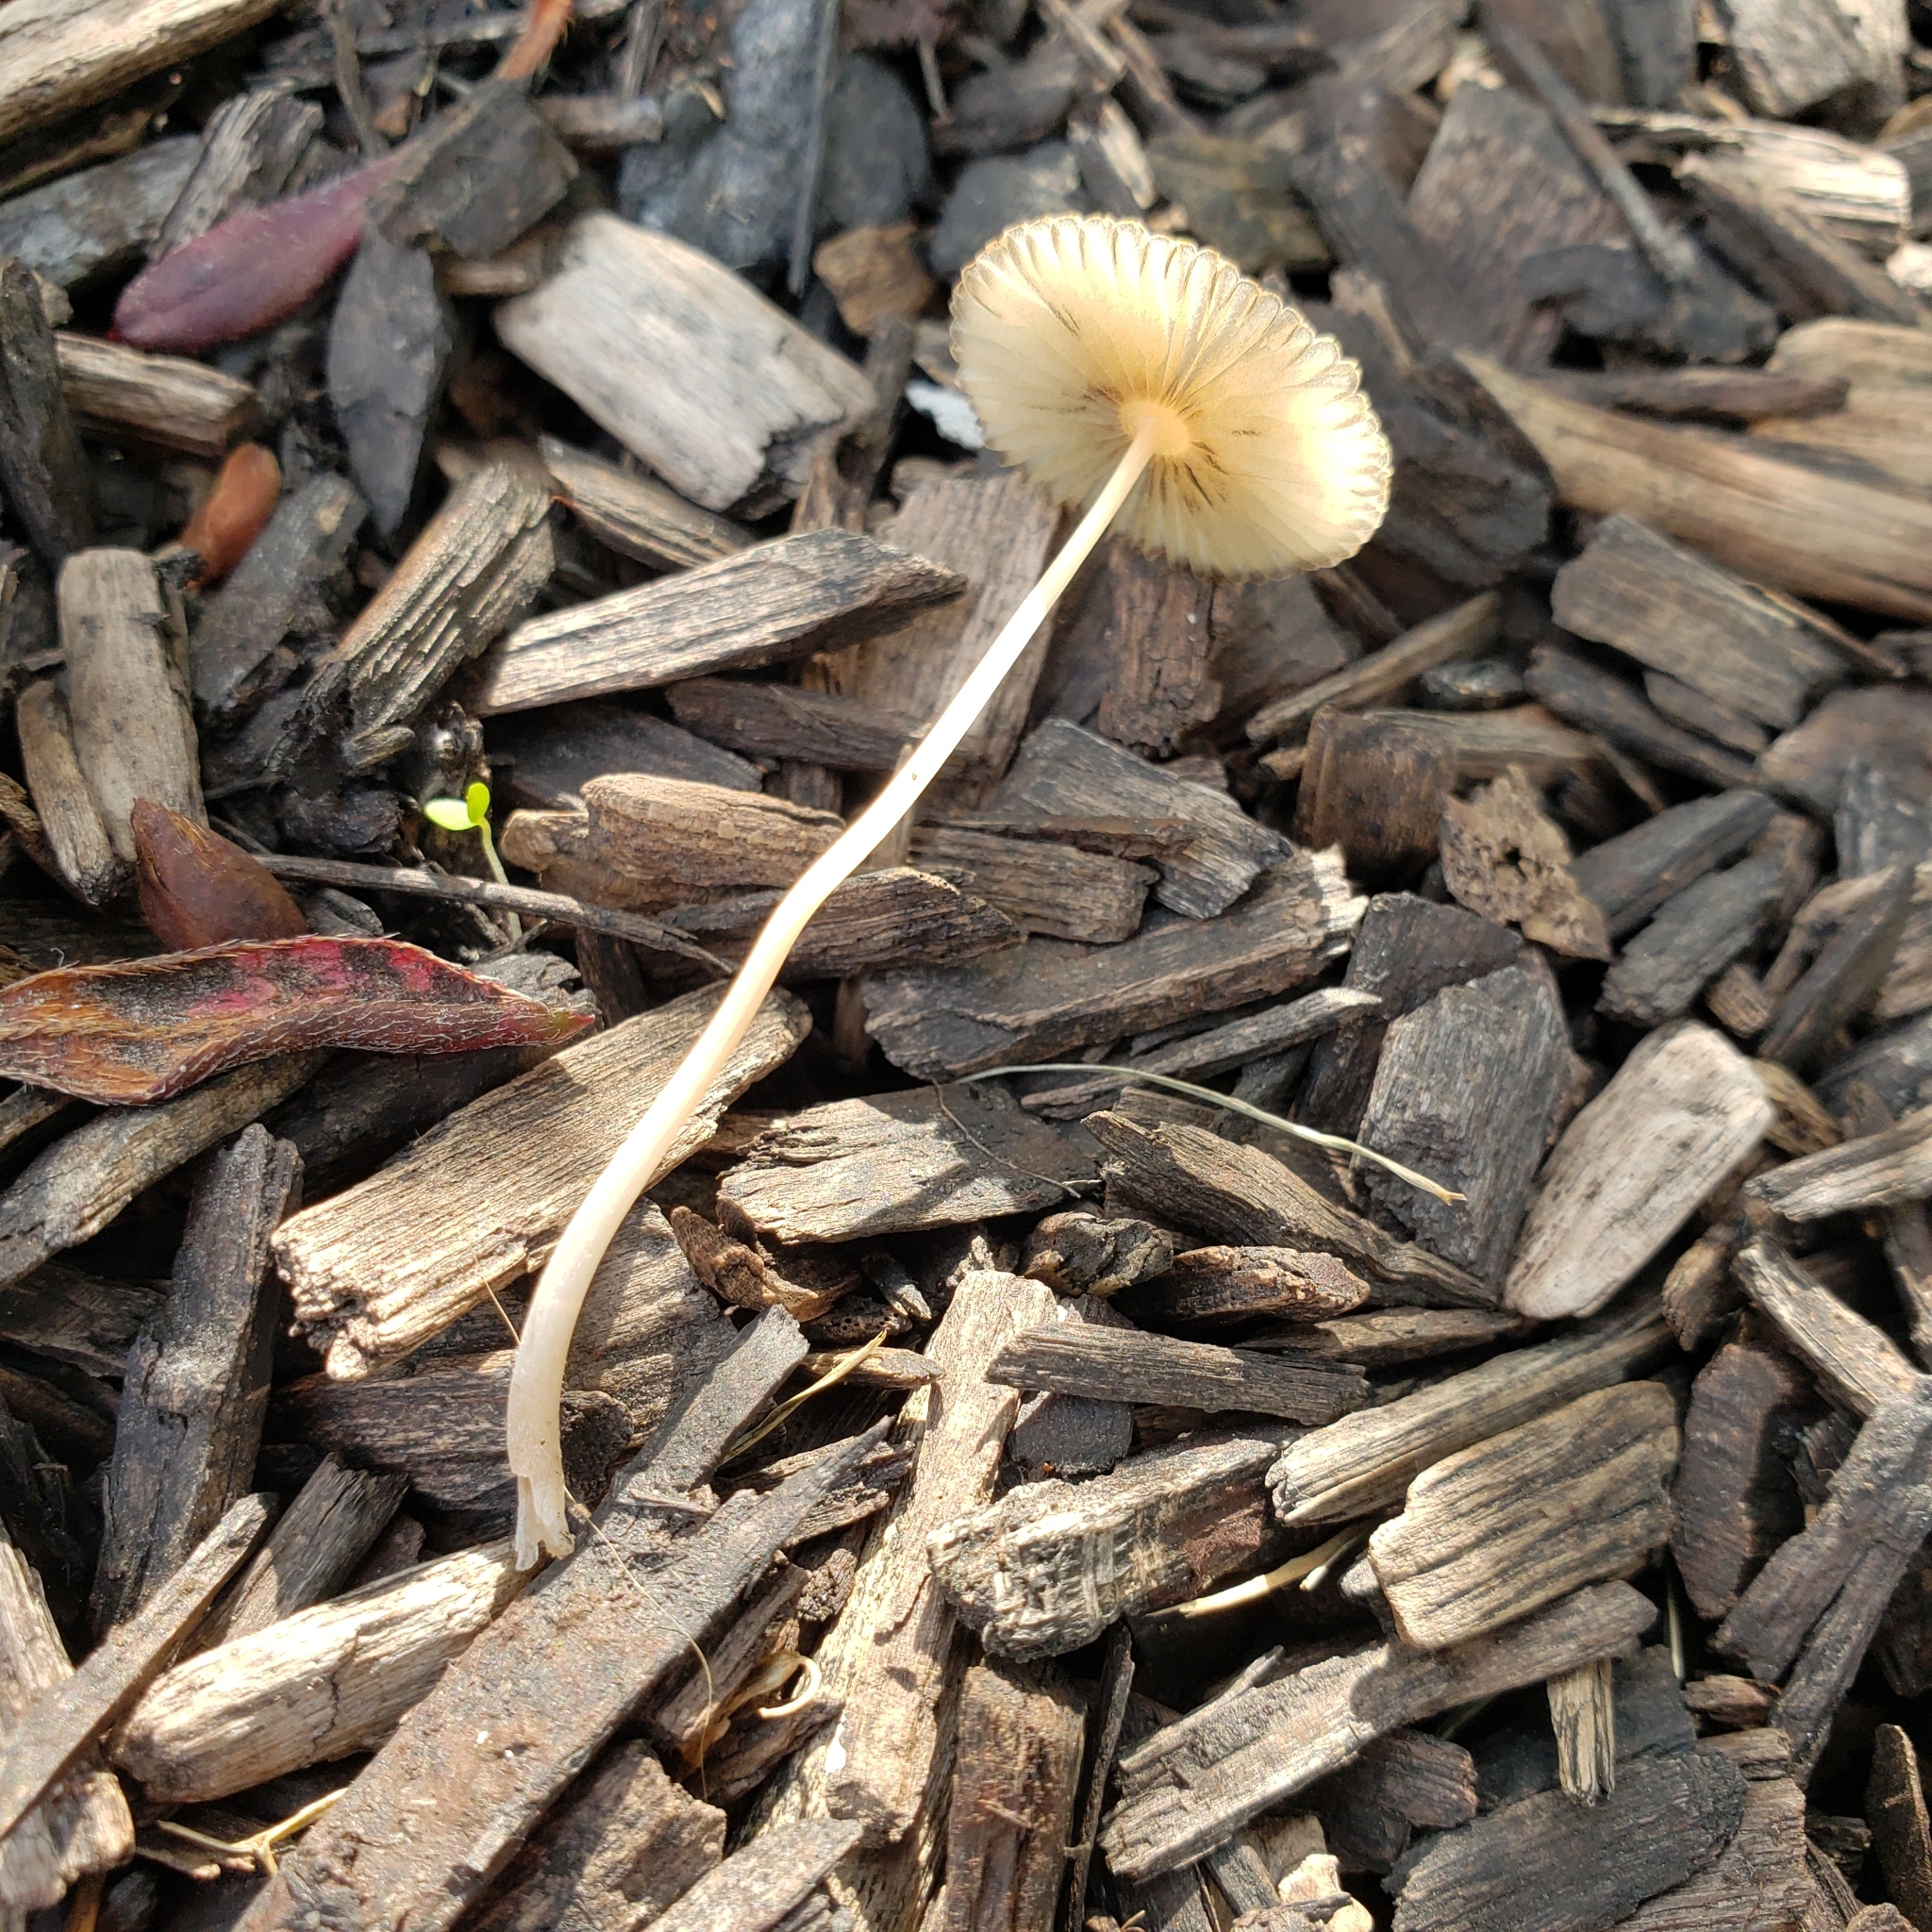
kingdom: Fungi
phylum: Basidiomycota
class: Agaricomycetes
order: Agaricales
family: Psathyrellaceae
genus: Parasola
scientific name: Parasola setulosa
